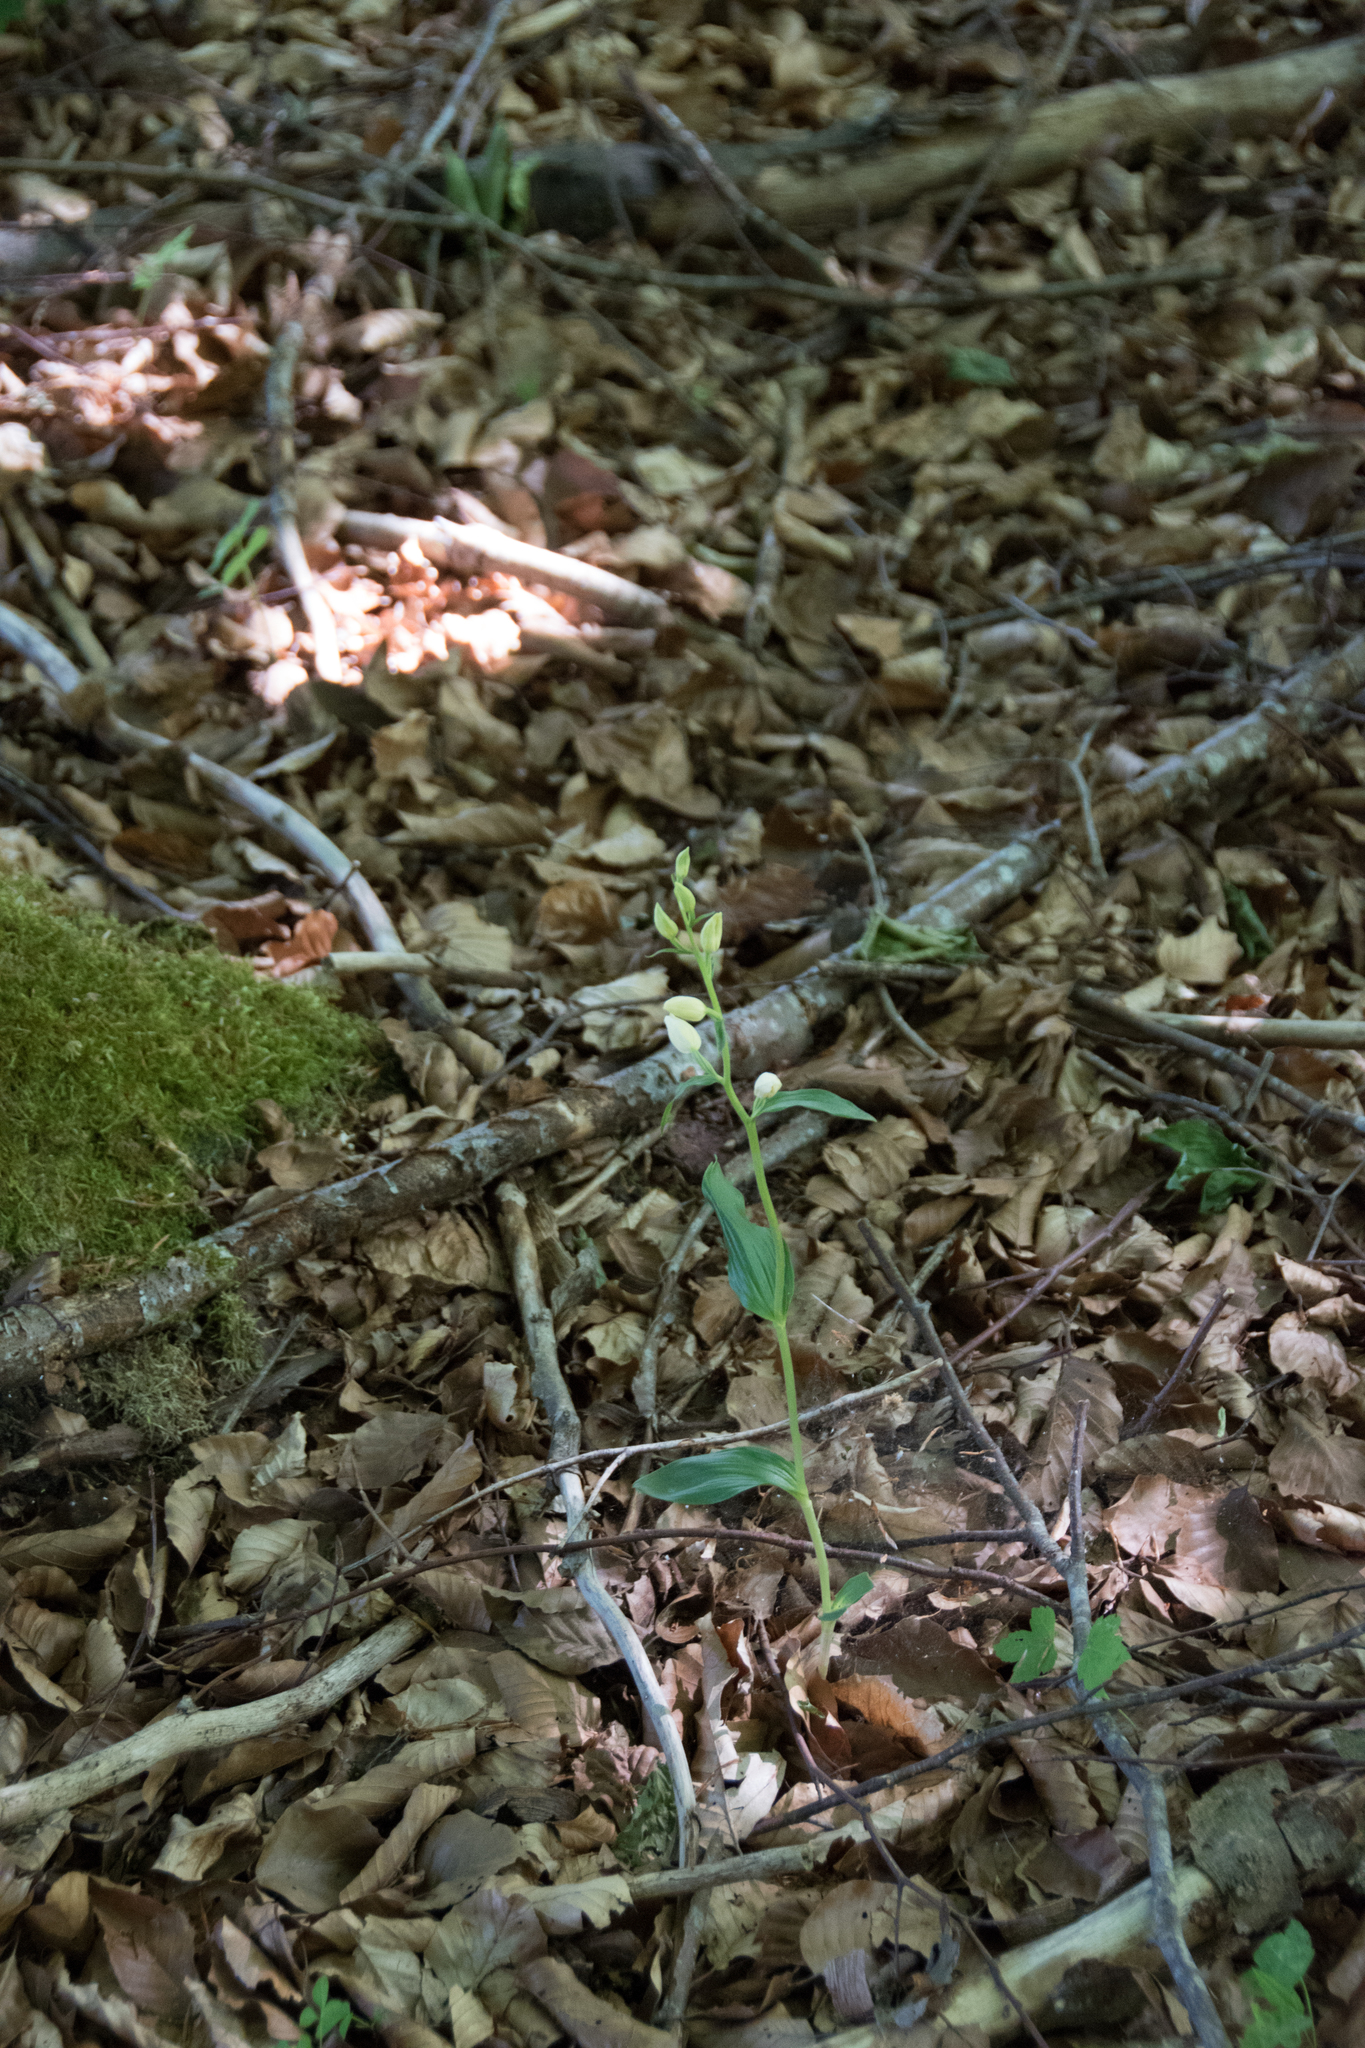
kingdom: Plantae
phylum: Tracheophyta
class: Liliopsida
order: Asparagales
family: Orchidaceae
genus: Cephalanthera
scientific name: Cephalanthera damasonium
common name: White helleborine
